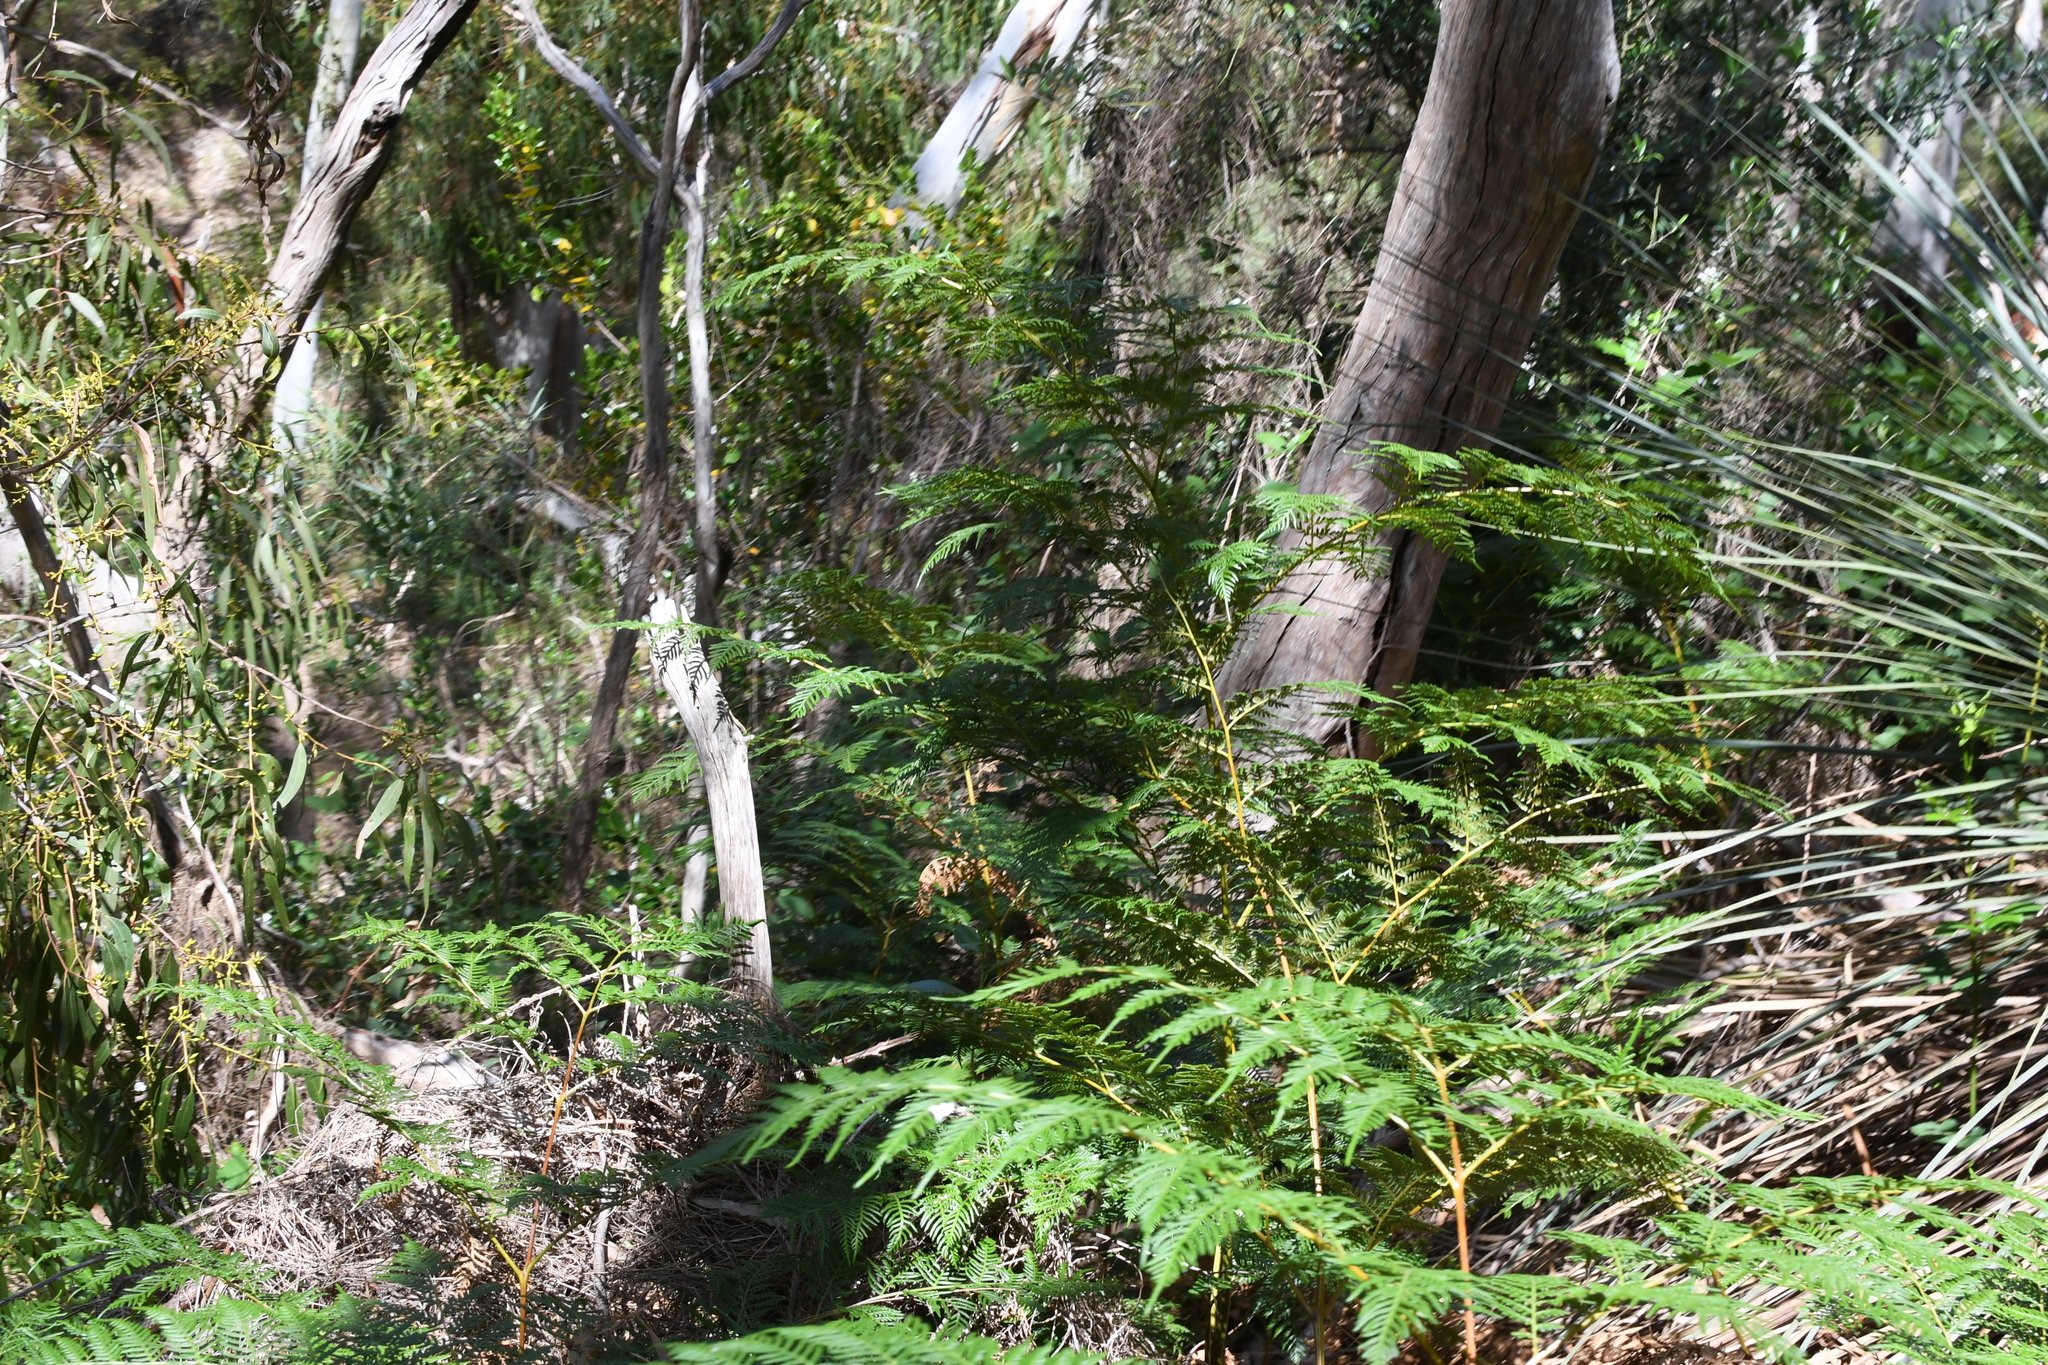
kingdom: Plantae
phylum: Tracheophyta
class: Polypodiopsida
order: Polypodiales
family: Dennstaedtiaceae
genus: Pteridium
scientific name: Pteridium esculentum
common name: Bracken fern
